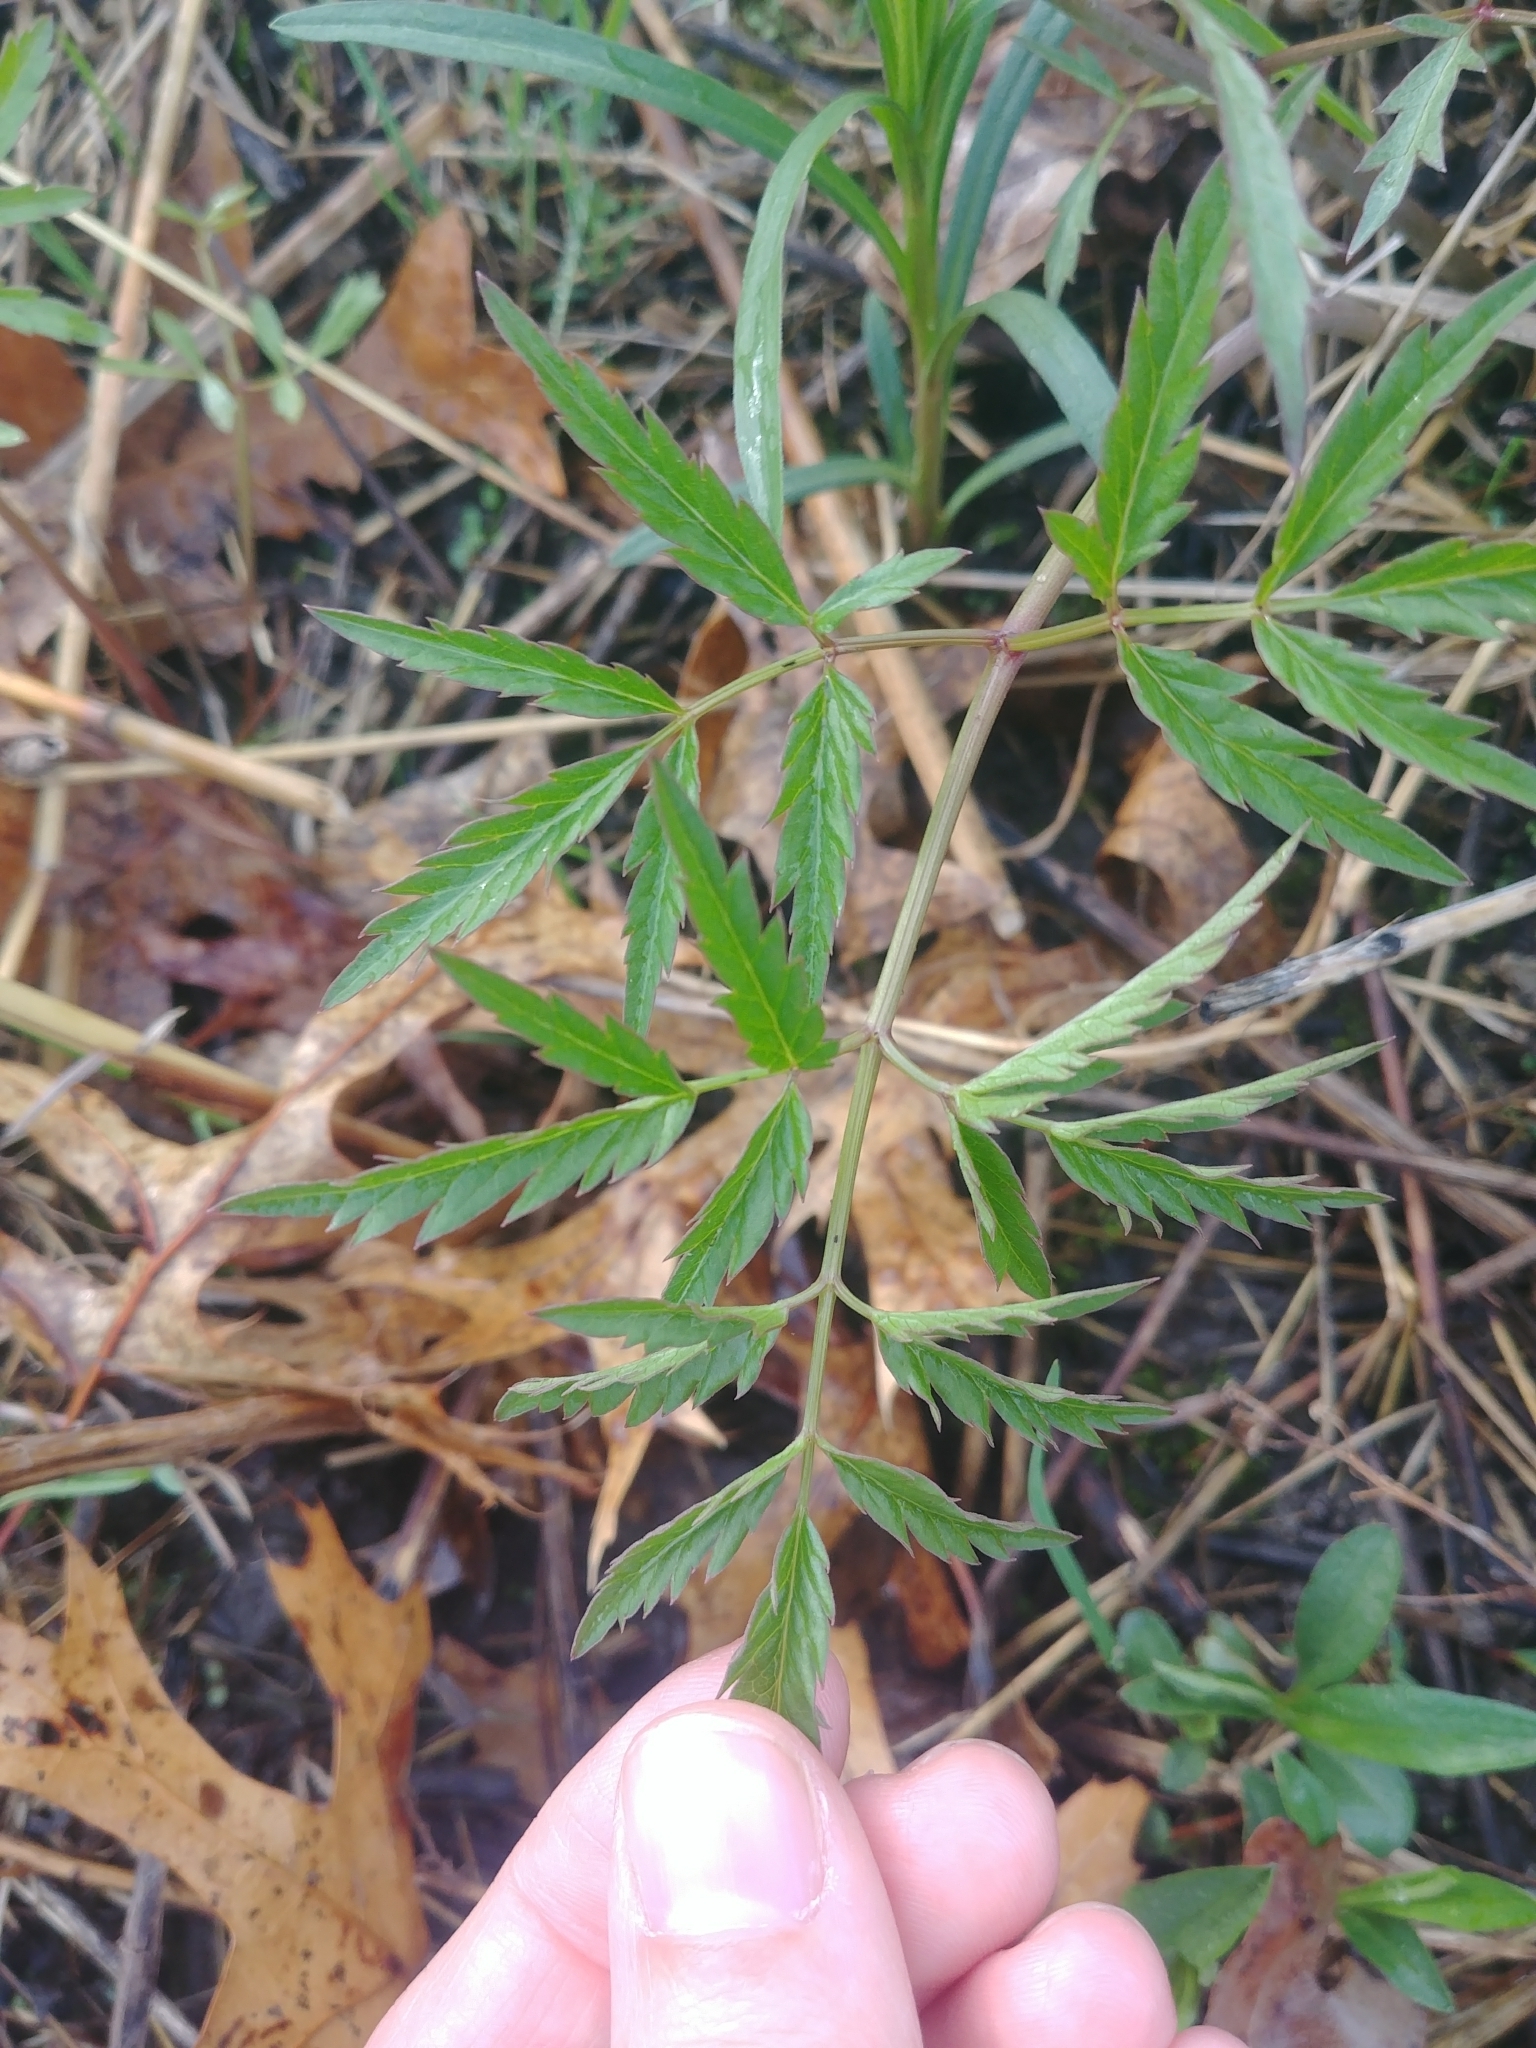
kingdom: Plantae
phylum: Tracheophyta
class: Magnoliopsida
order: Apiales
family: Apiaceae
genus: Cicuta
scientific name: Cicuta maculata
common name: Spotted cowbane
